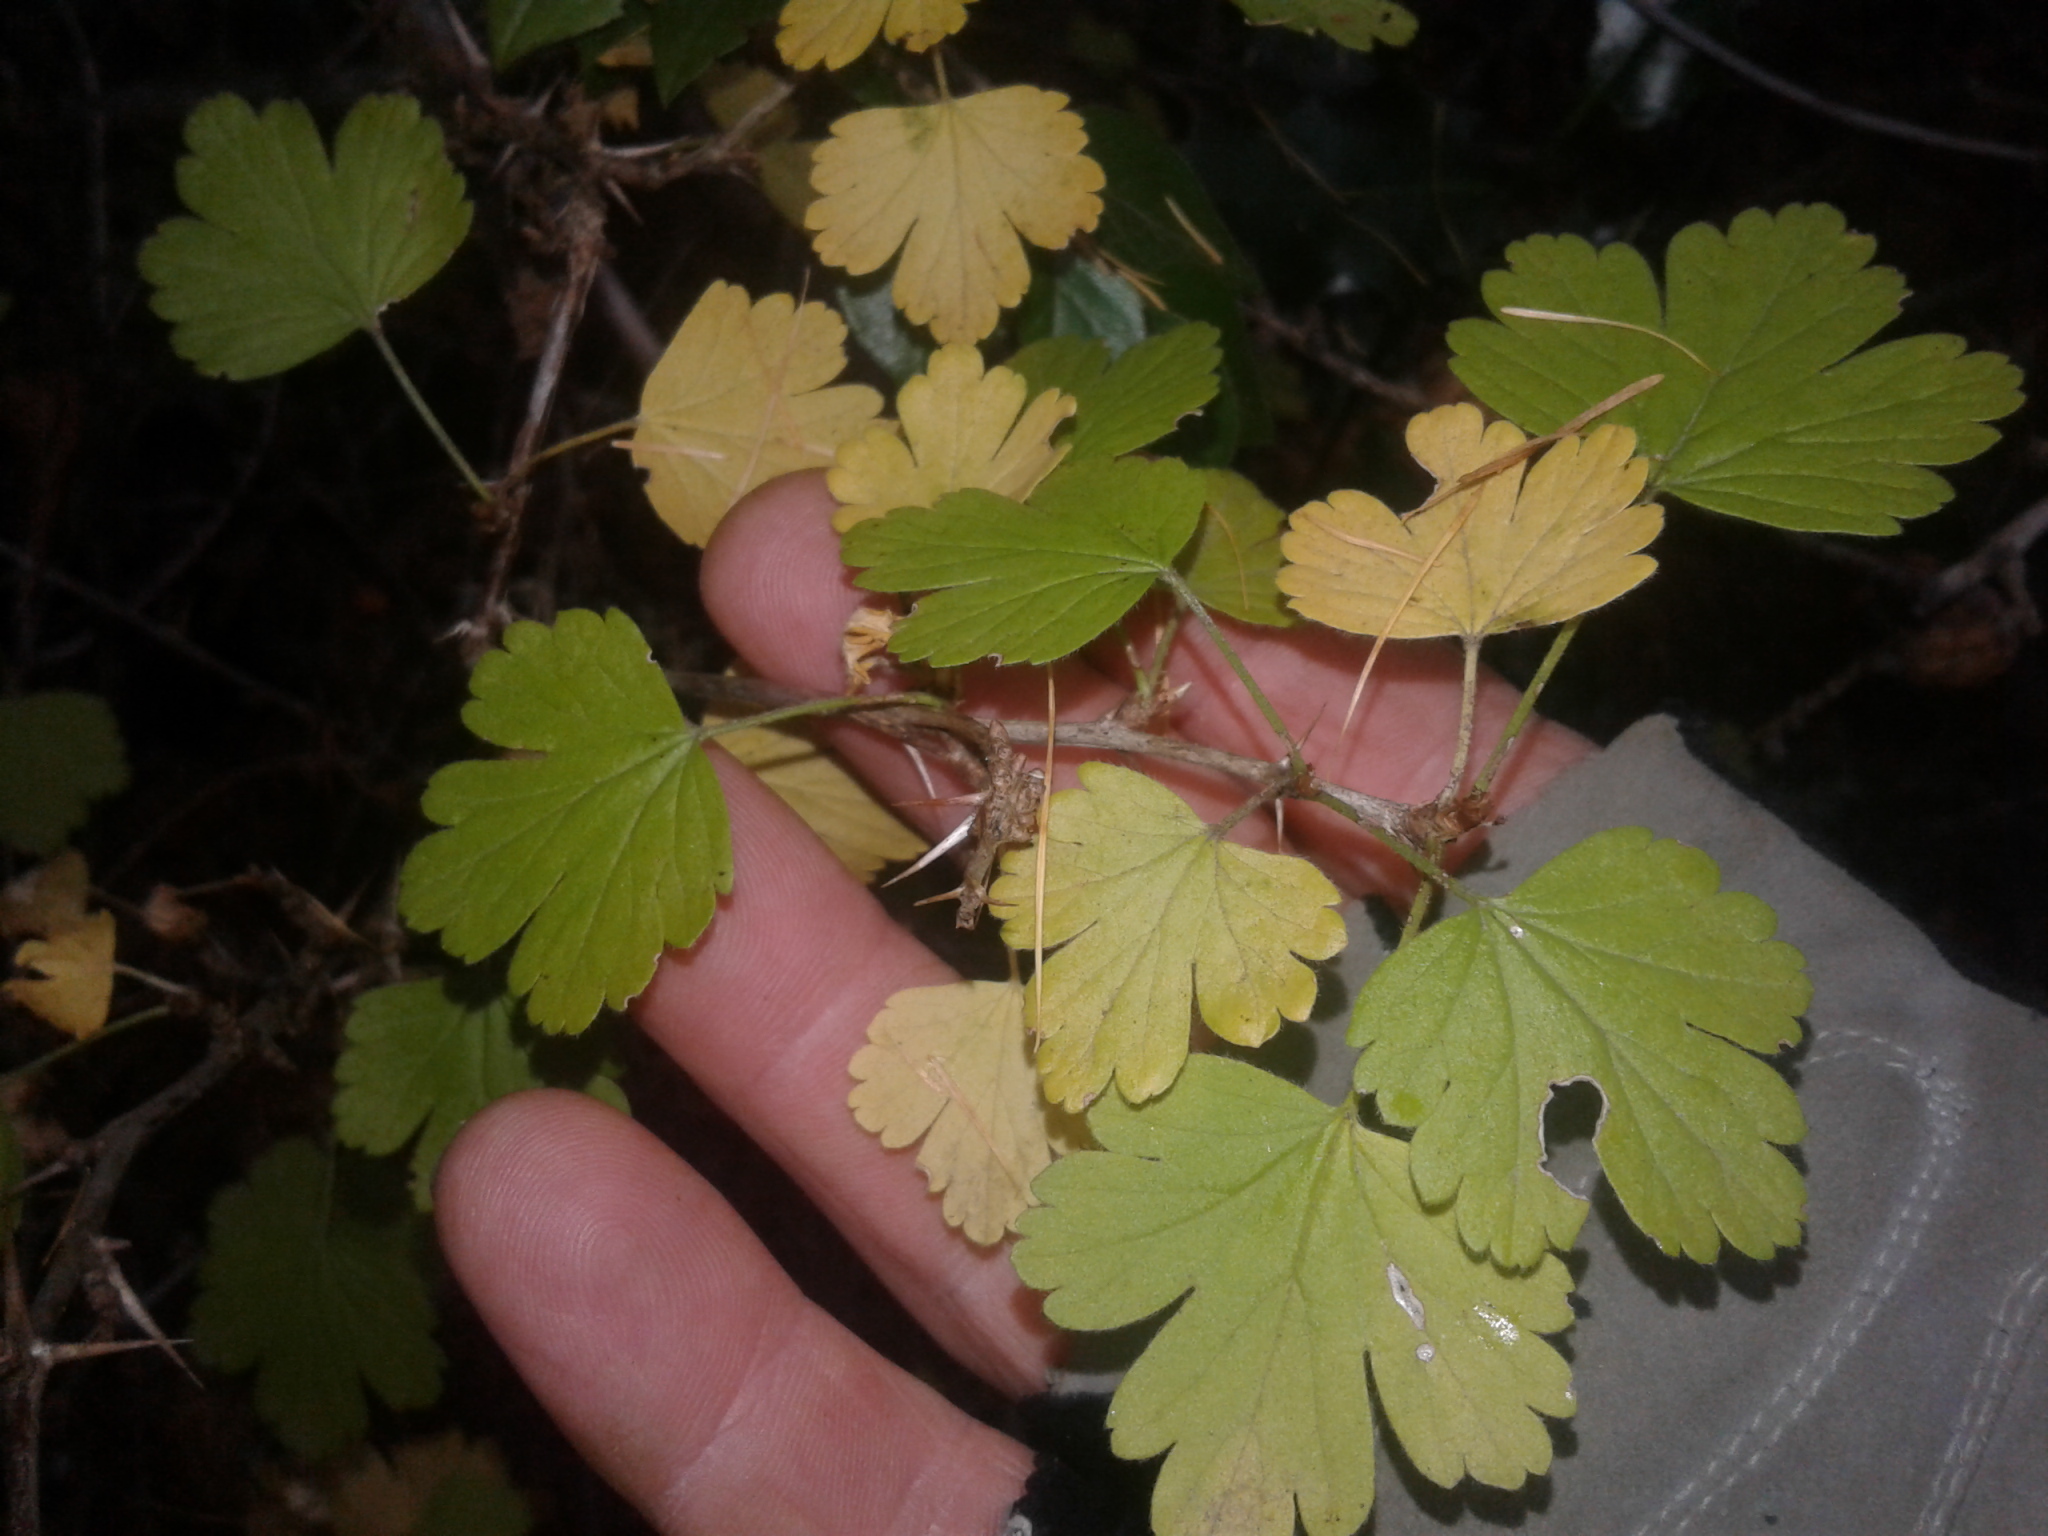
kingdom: Plantae
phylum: Tracheophyta
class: Magnoliopsida
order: Saxifragales
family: Grossulariaceae
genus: Ribes
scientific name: Ribes uva-crispa
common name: Gooseberry
